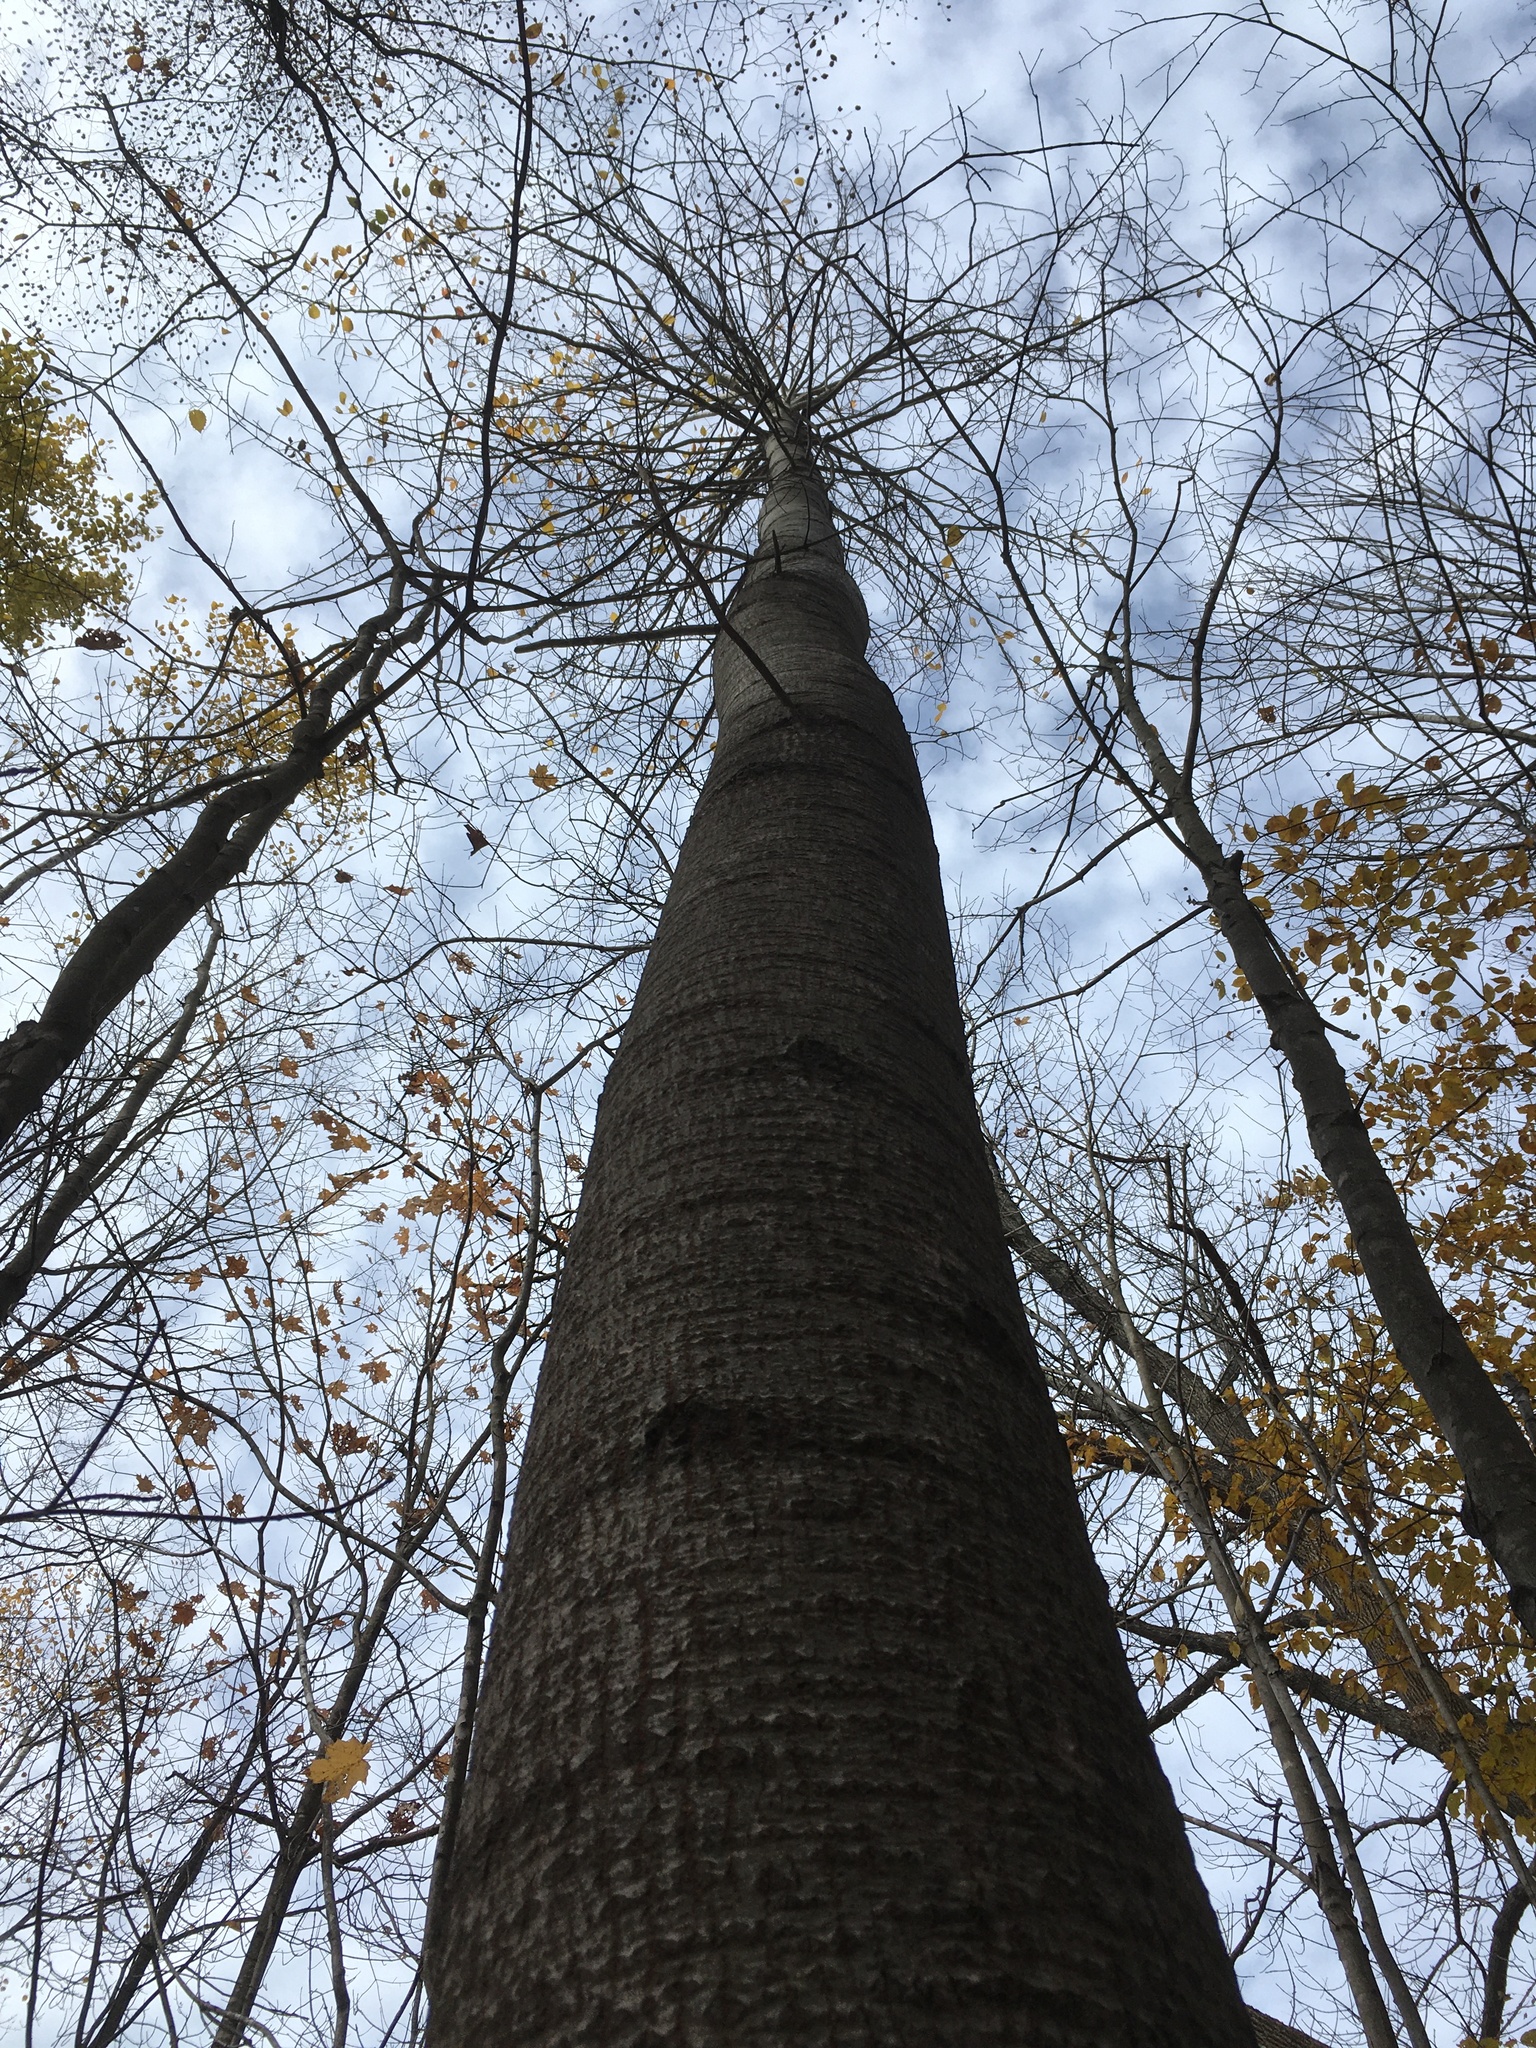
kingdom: Plantae
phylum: Tracheophyta
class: Magnoliopsida
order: Malpighiales
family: Salicaceae
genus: Populus
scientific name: Populus grandidentata
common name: Bigtooth aspen
